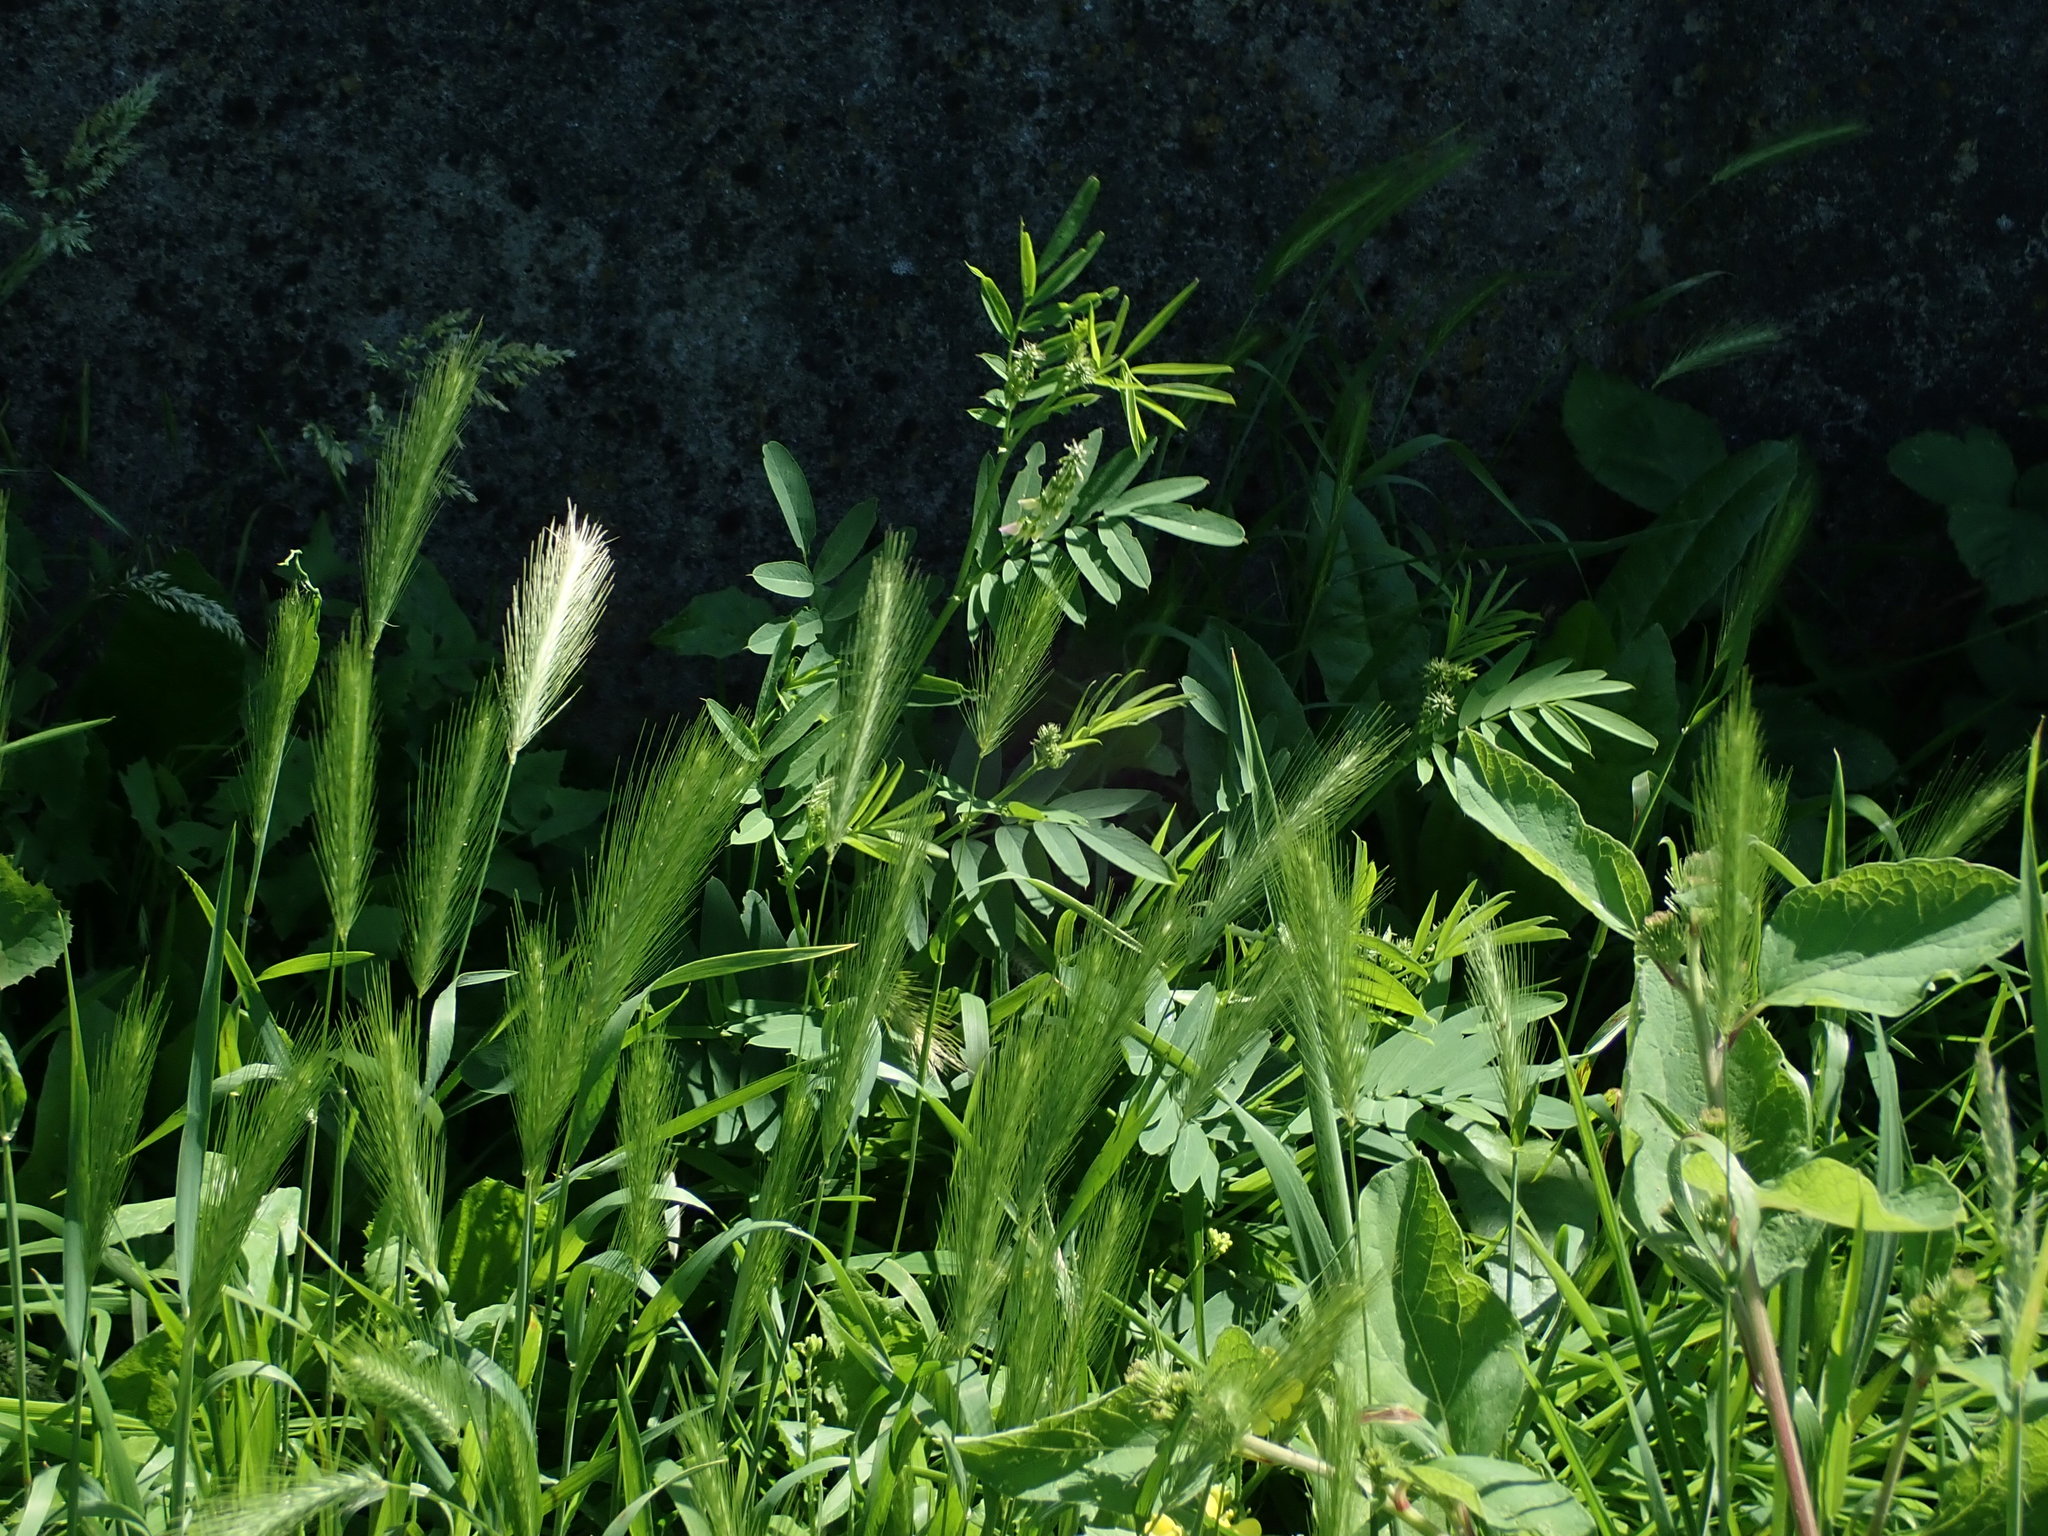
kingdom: Plantae
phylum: Tracheophyta
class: Magnoliopsida
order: Fabales
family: Fabaceae
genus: Galega
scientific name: Galega officinalis
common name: Goat's-rue
